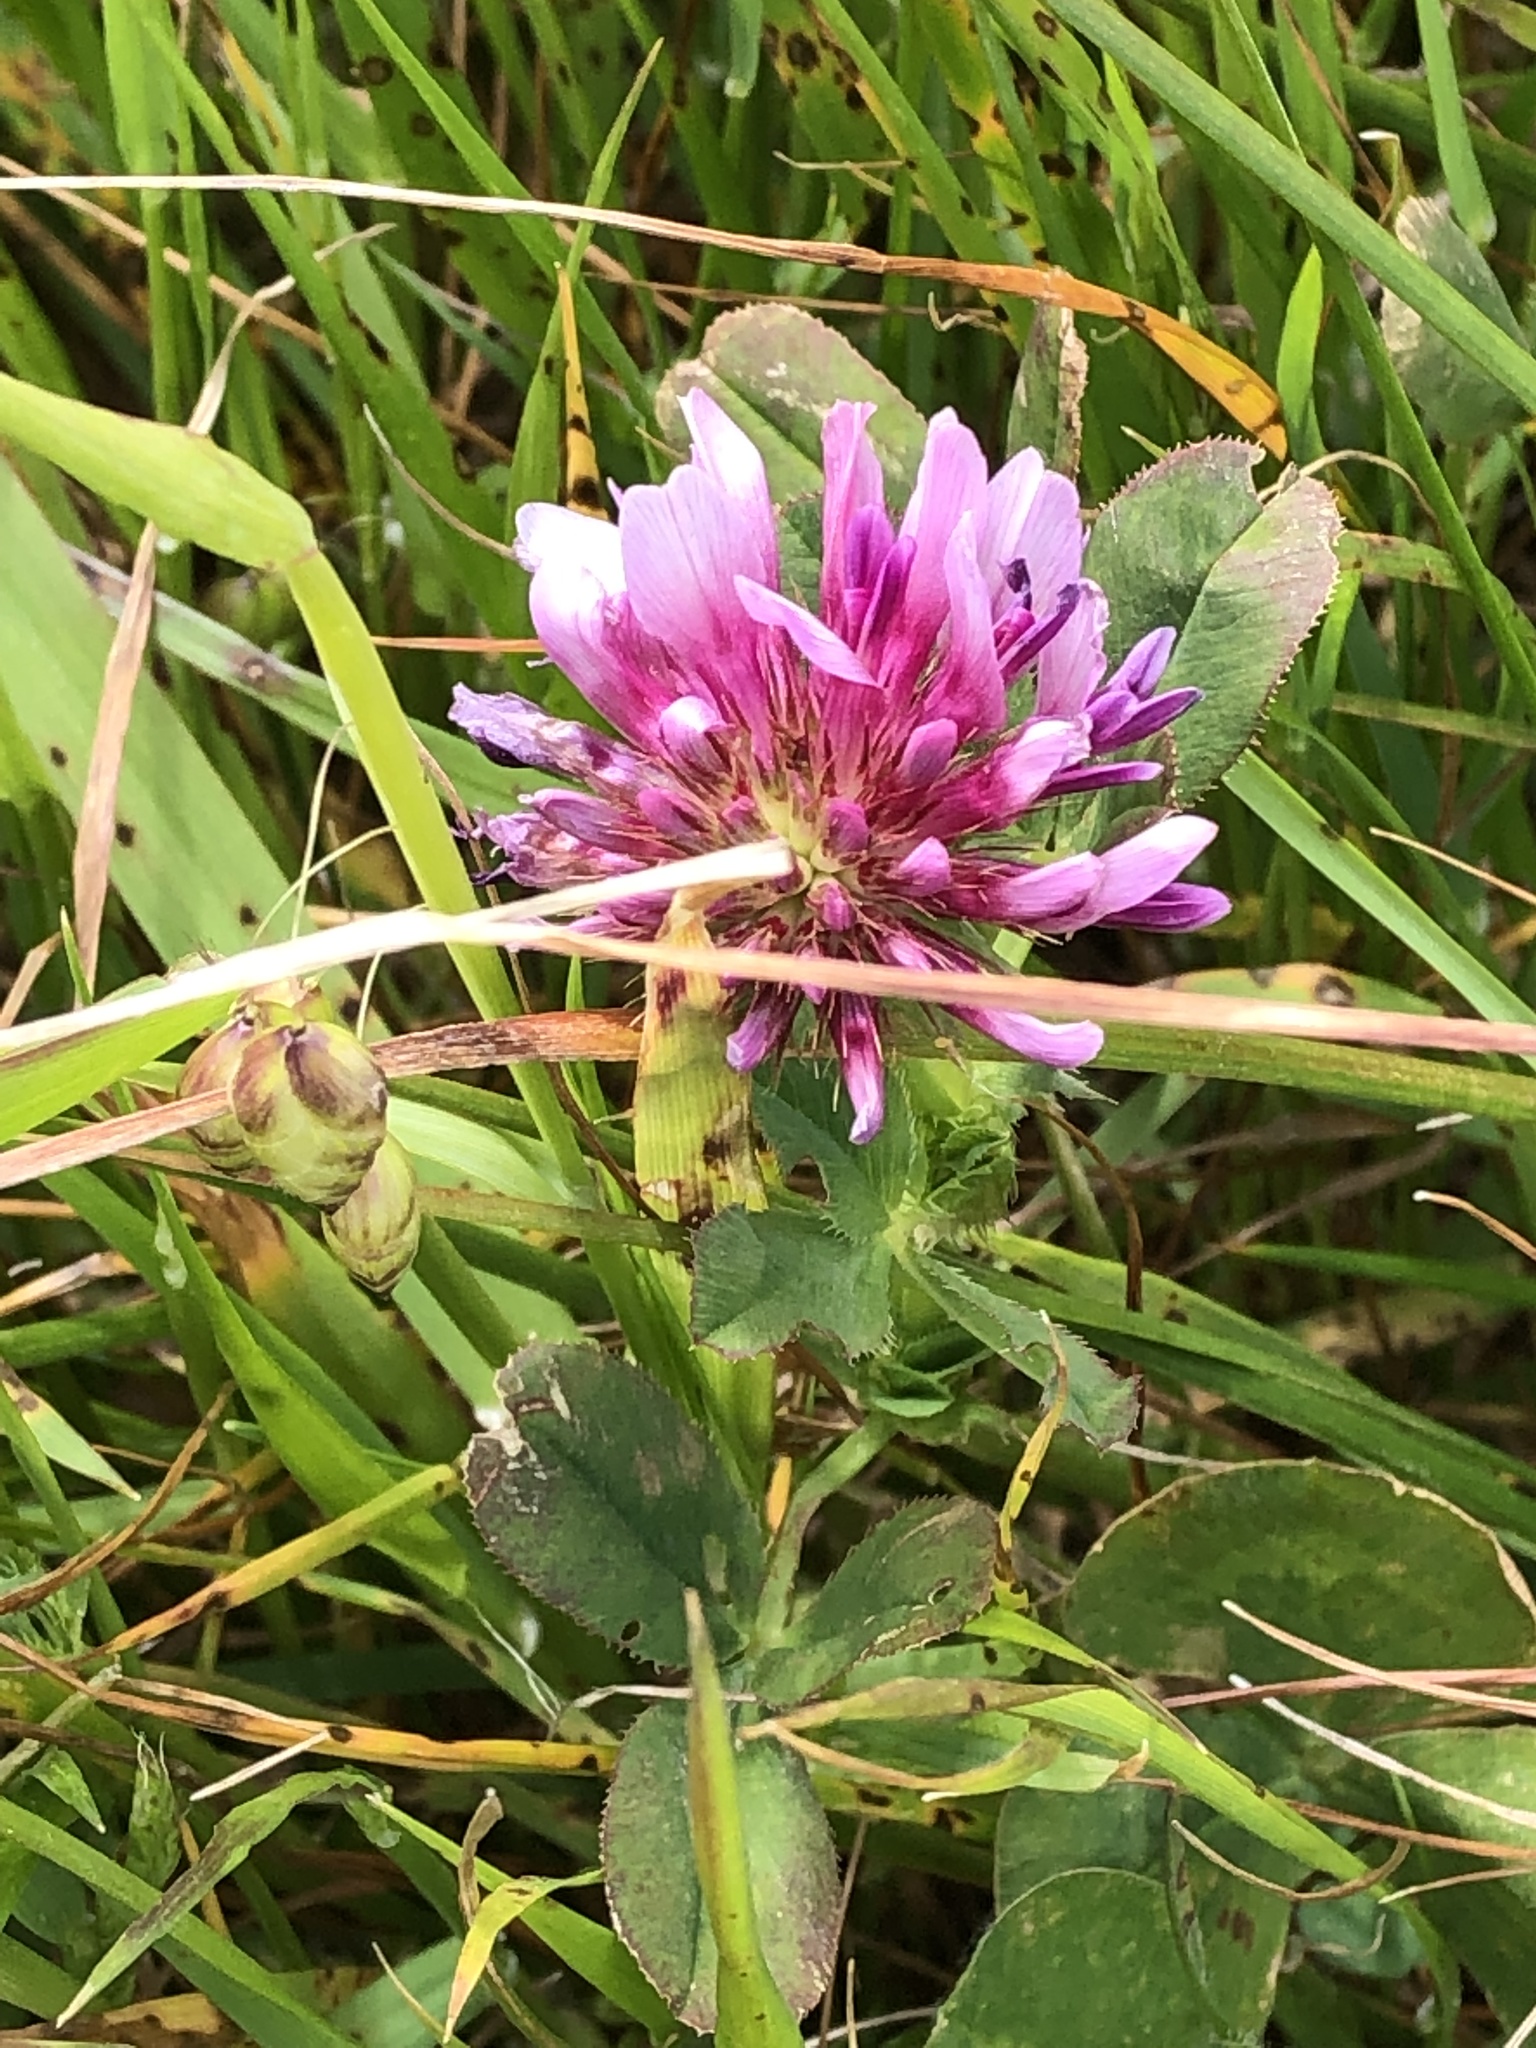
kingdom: Plantae
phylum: Tracheophyta
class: Magnoliopsida
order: Fabales
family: Fabaceae
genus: Trifolium
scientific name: Trifolium wormskioldii
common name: Springbank clover
